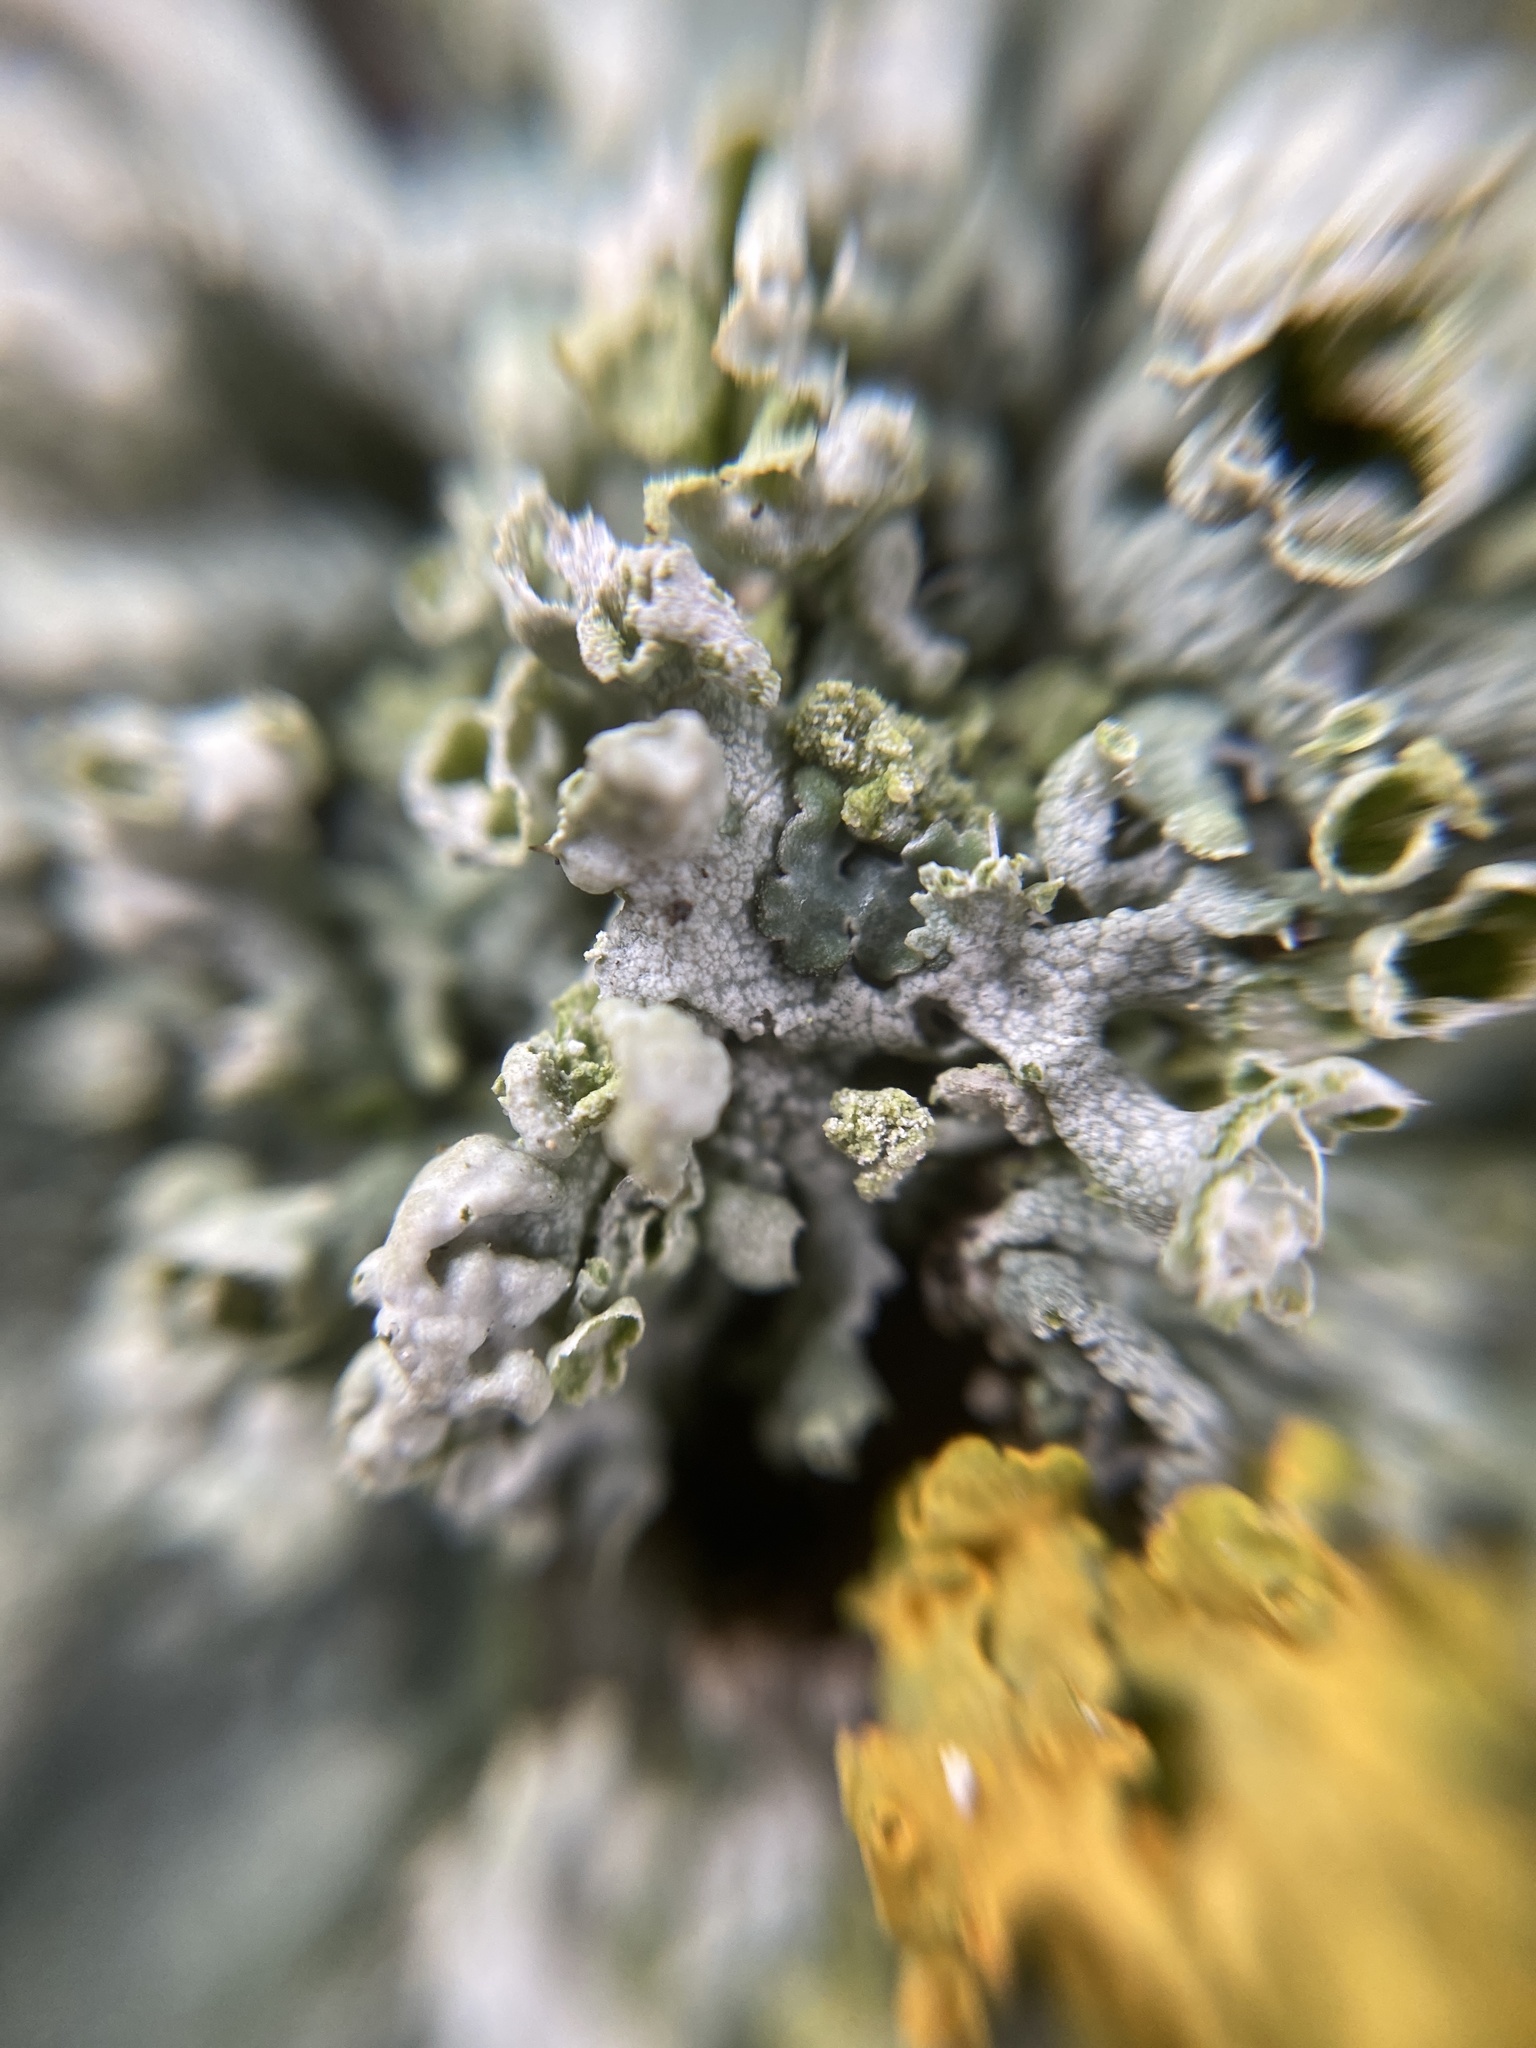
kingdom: Fungi
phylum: Ascomycota
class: Lecanoromycetes
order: Caliciales
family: Physciaceae
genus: Physcia
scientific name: Physcia adscendens
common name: Hooded rosette lichen
